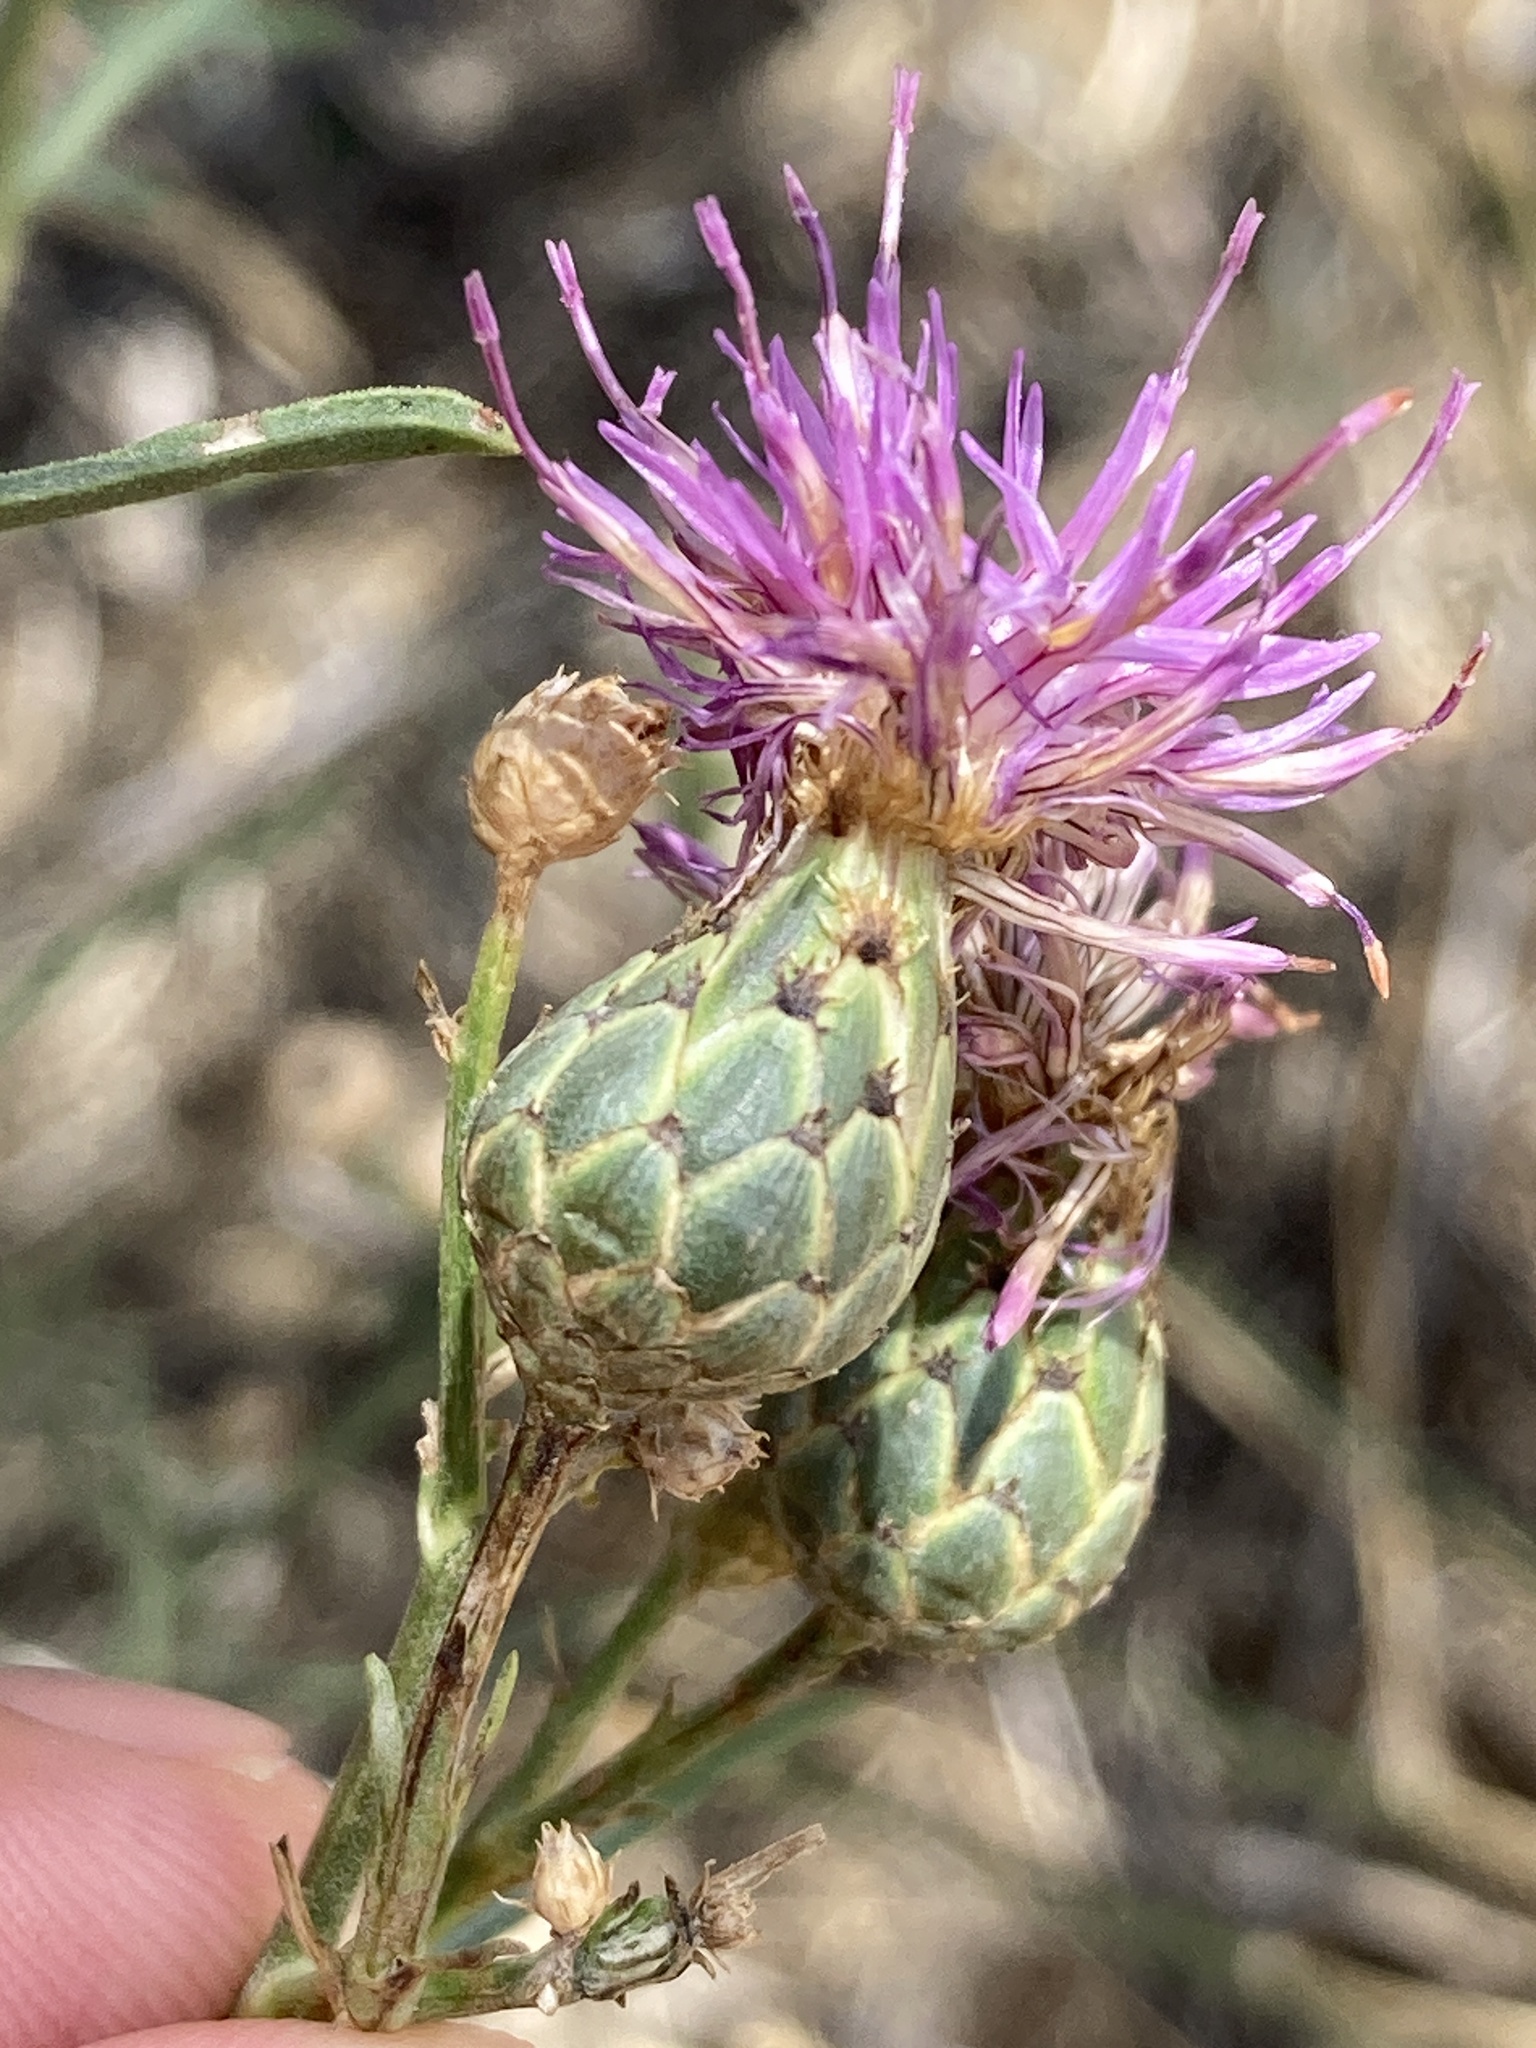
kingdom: Plantae
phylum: Tracheophyta
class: Magnoliopsida
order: Asterales
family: Asteraceae
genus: Centaurea
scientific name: Centaurea scabiosa
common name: Greater knapweed
